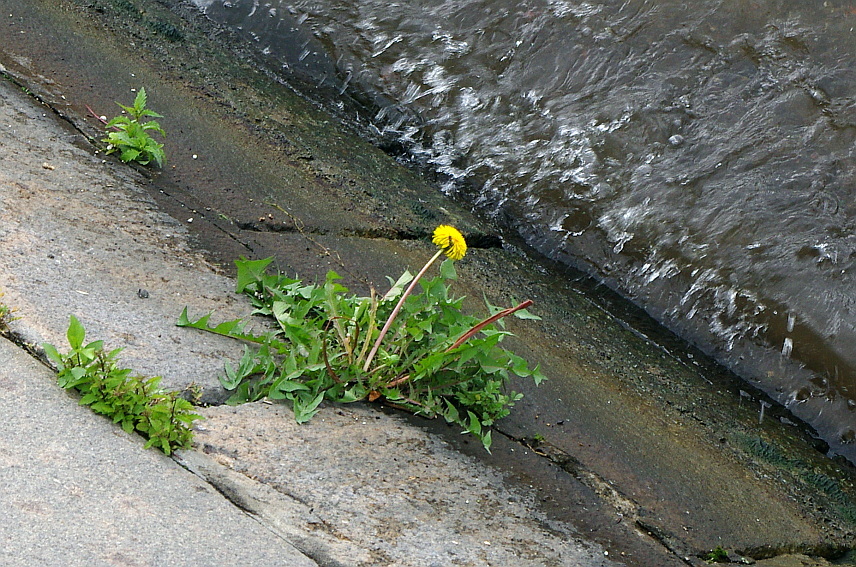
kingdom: Plantae
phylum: Tracheophyta
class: Magnoliopsida
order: Asterales
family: Asteraceae
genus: Taraxacum
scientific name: Taraxacum officinale
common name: Common dandelion
